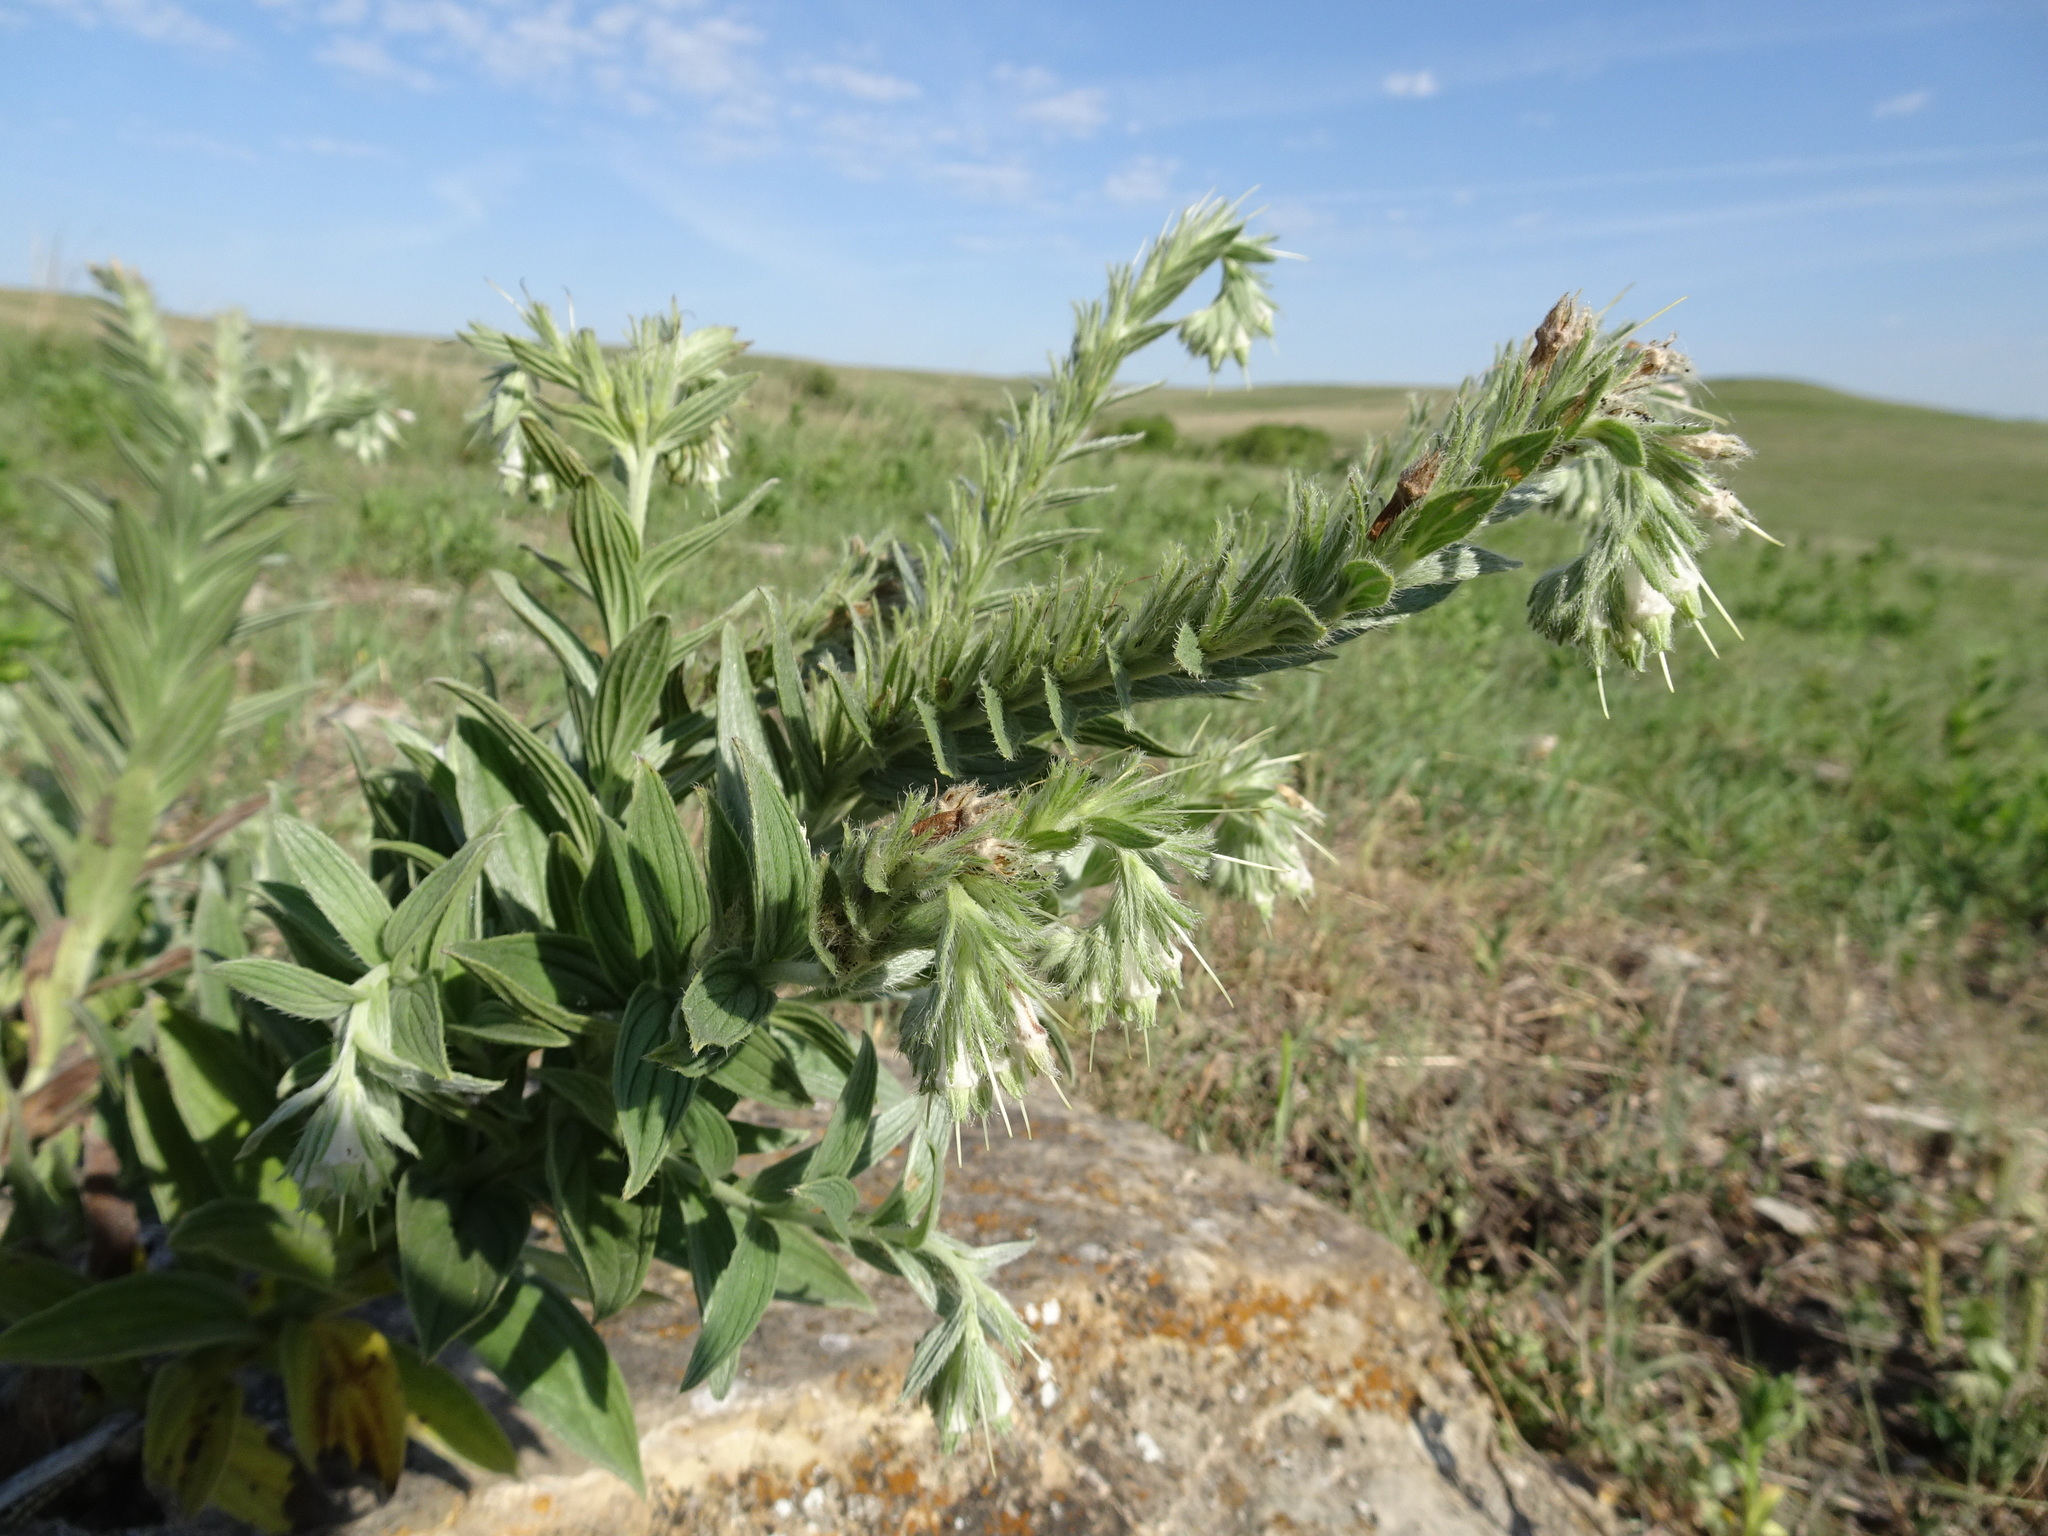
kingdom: Plantae
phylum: Tracheophyta
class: Magnoliopsida
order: Boraginales
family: Boraginaceae
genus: Lithospermum
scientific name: Lithospermum occidentale
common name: Western false gromwell
